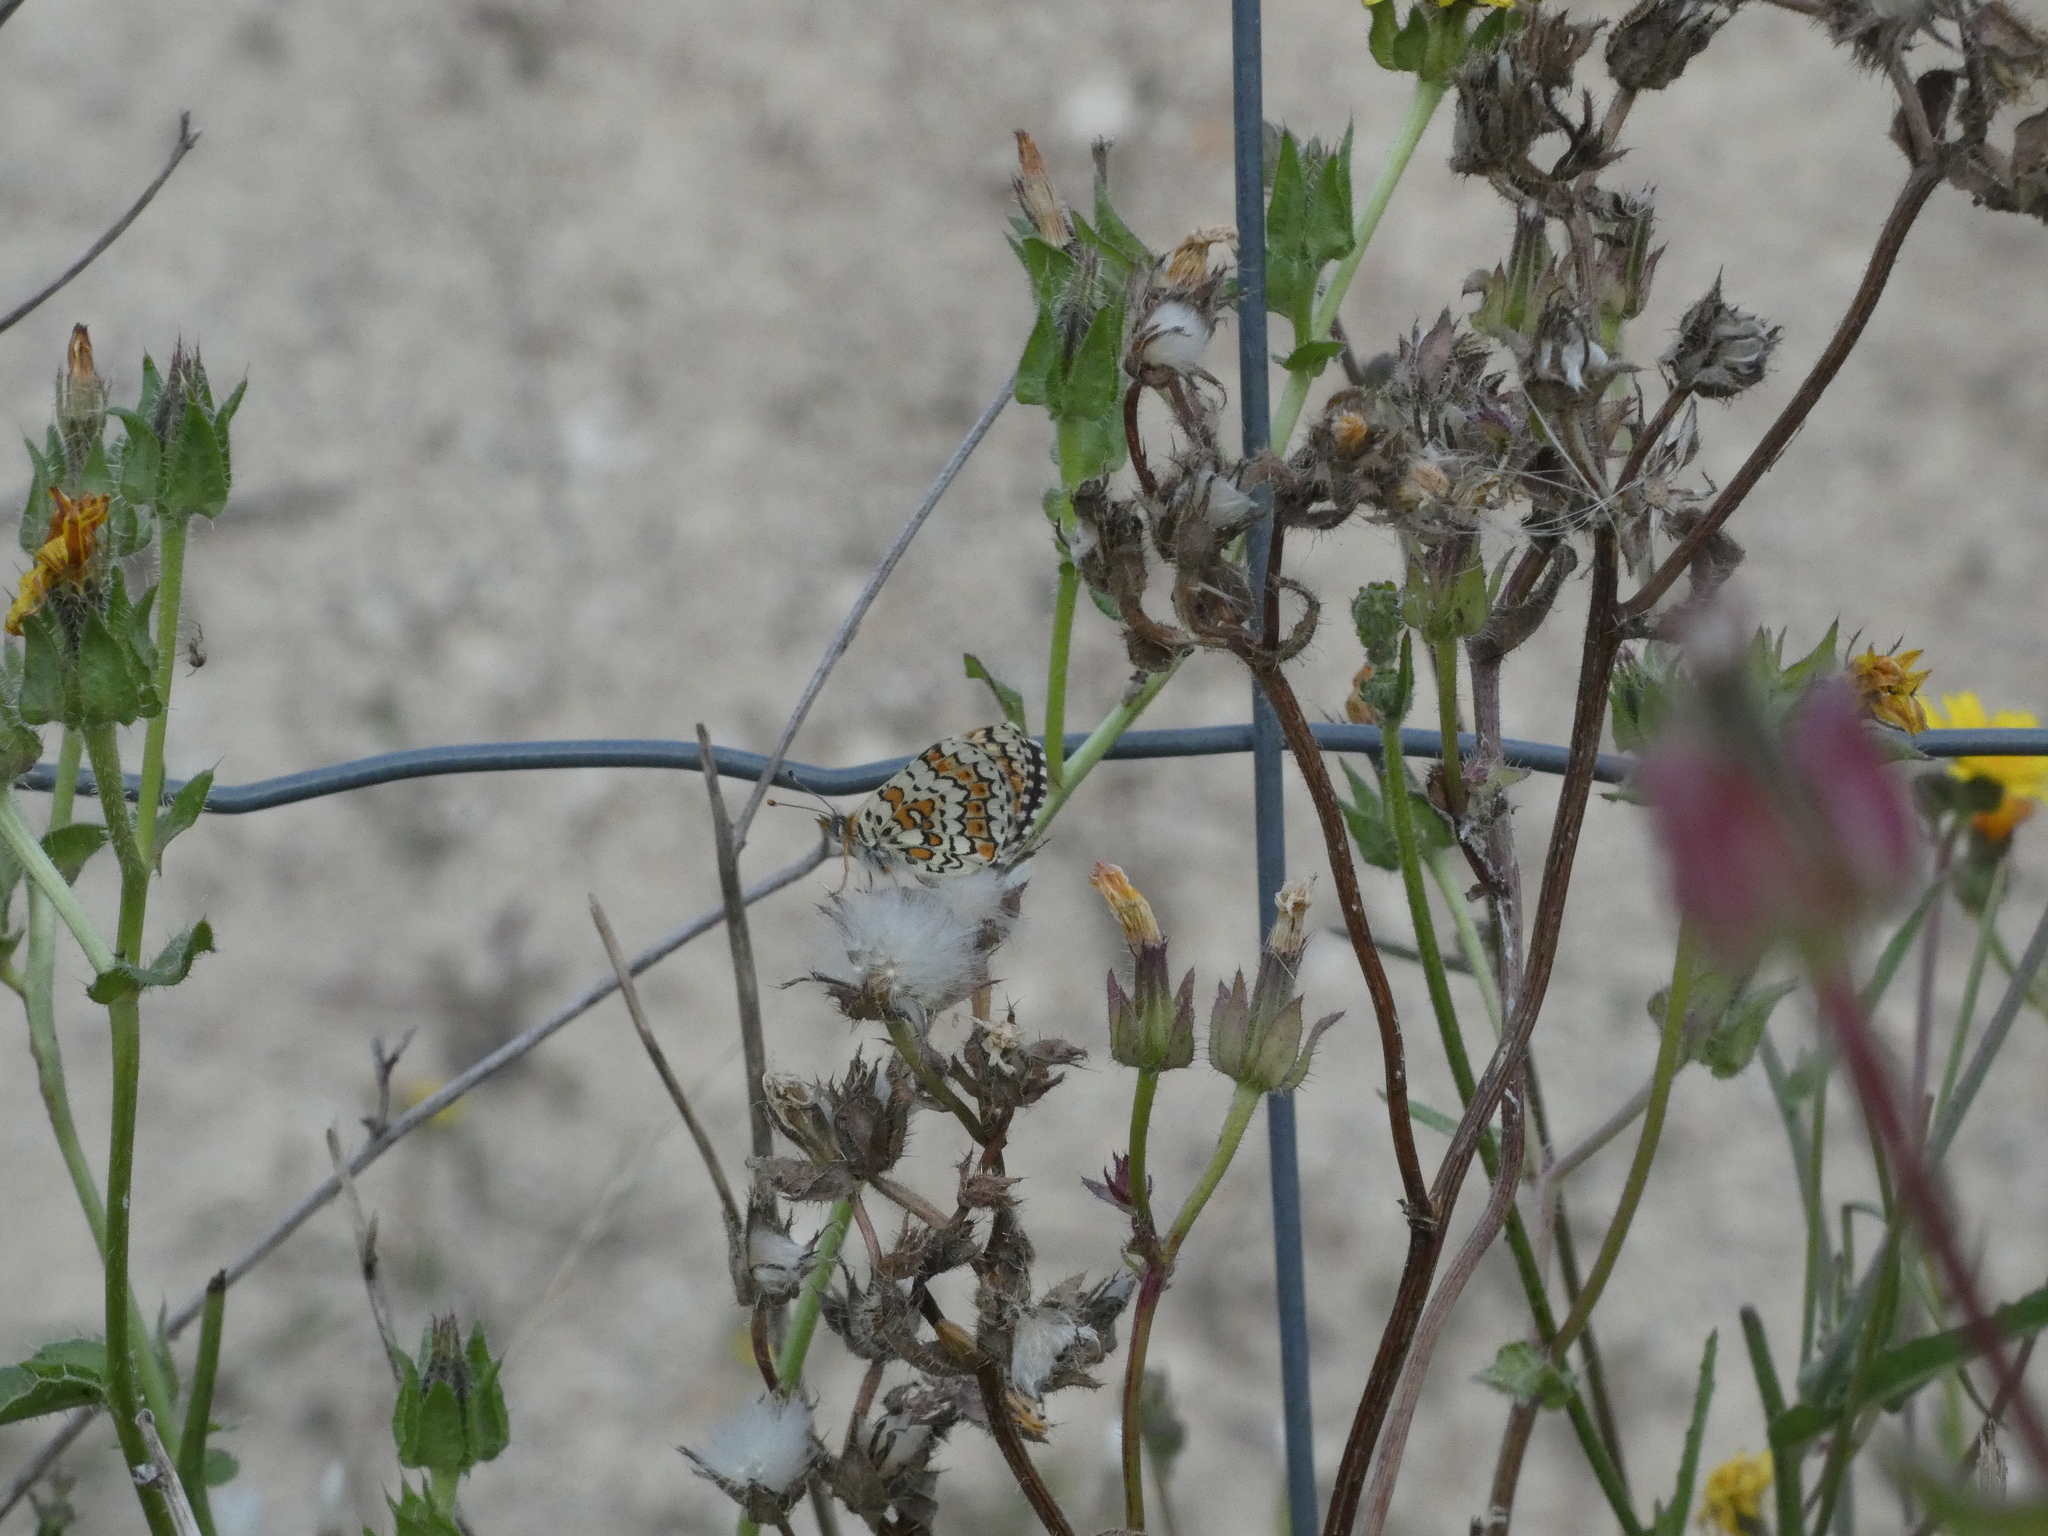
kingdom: Animalia
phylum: Arthropoda
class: Insecta
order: Lepidoptera
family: Nymphalidae
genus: Melitaea
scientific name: Melitaea cinxia
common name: Glanville fritillary
